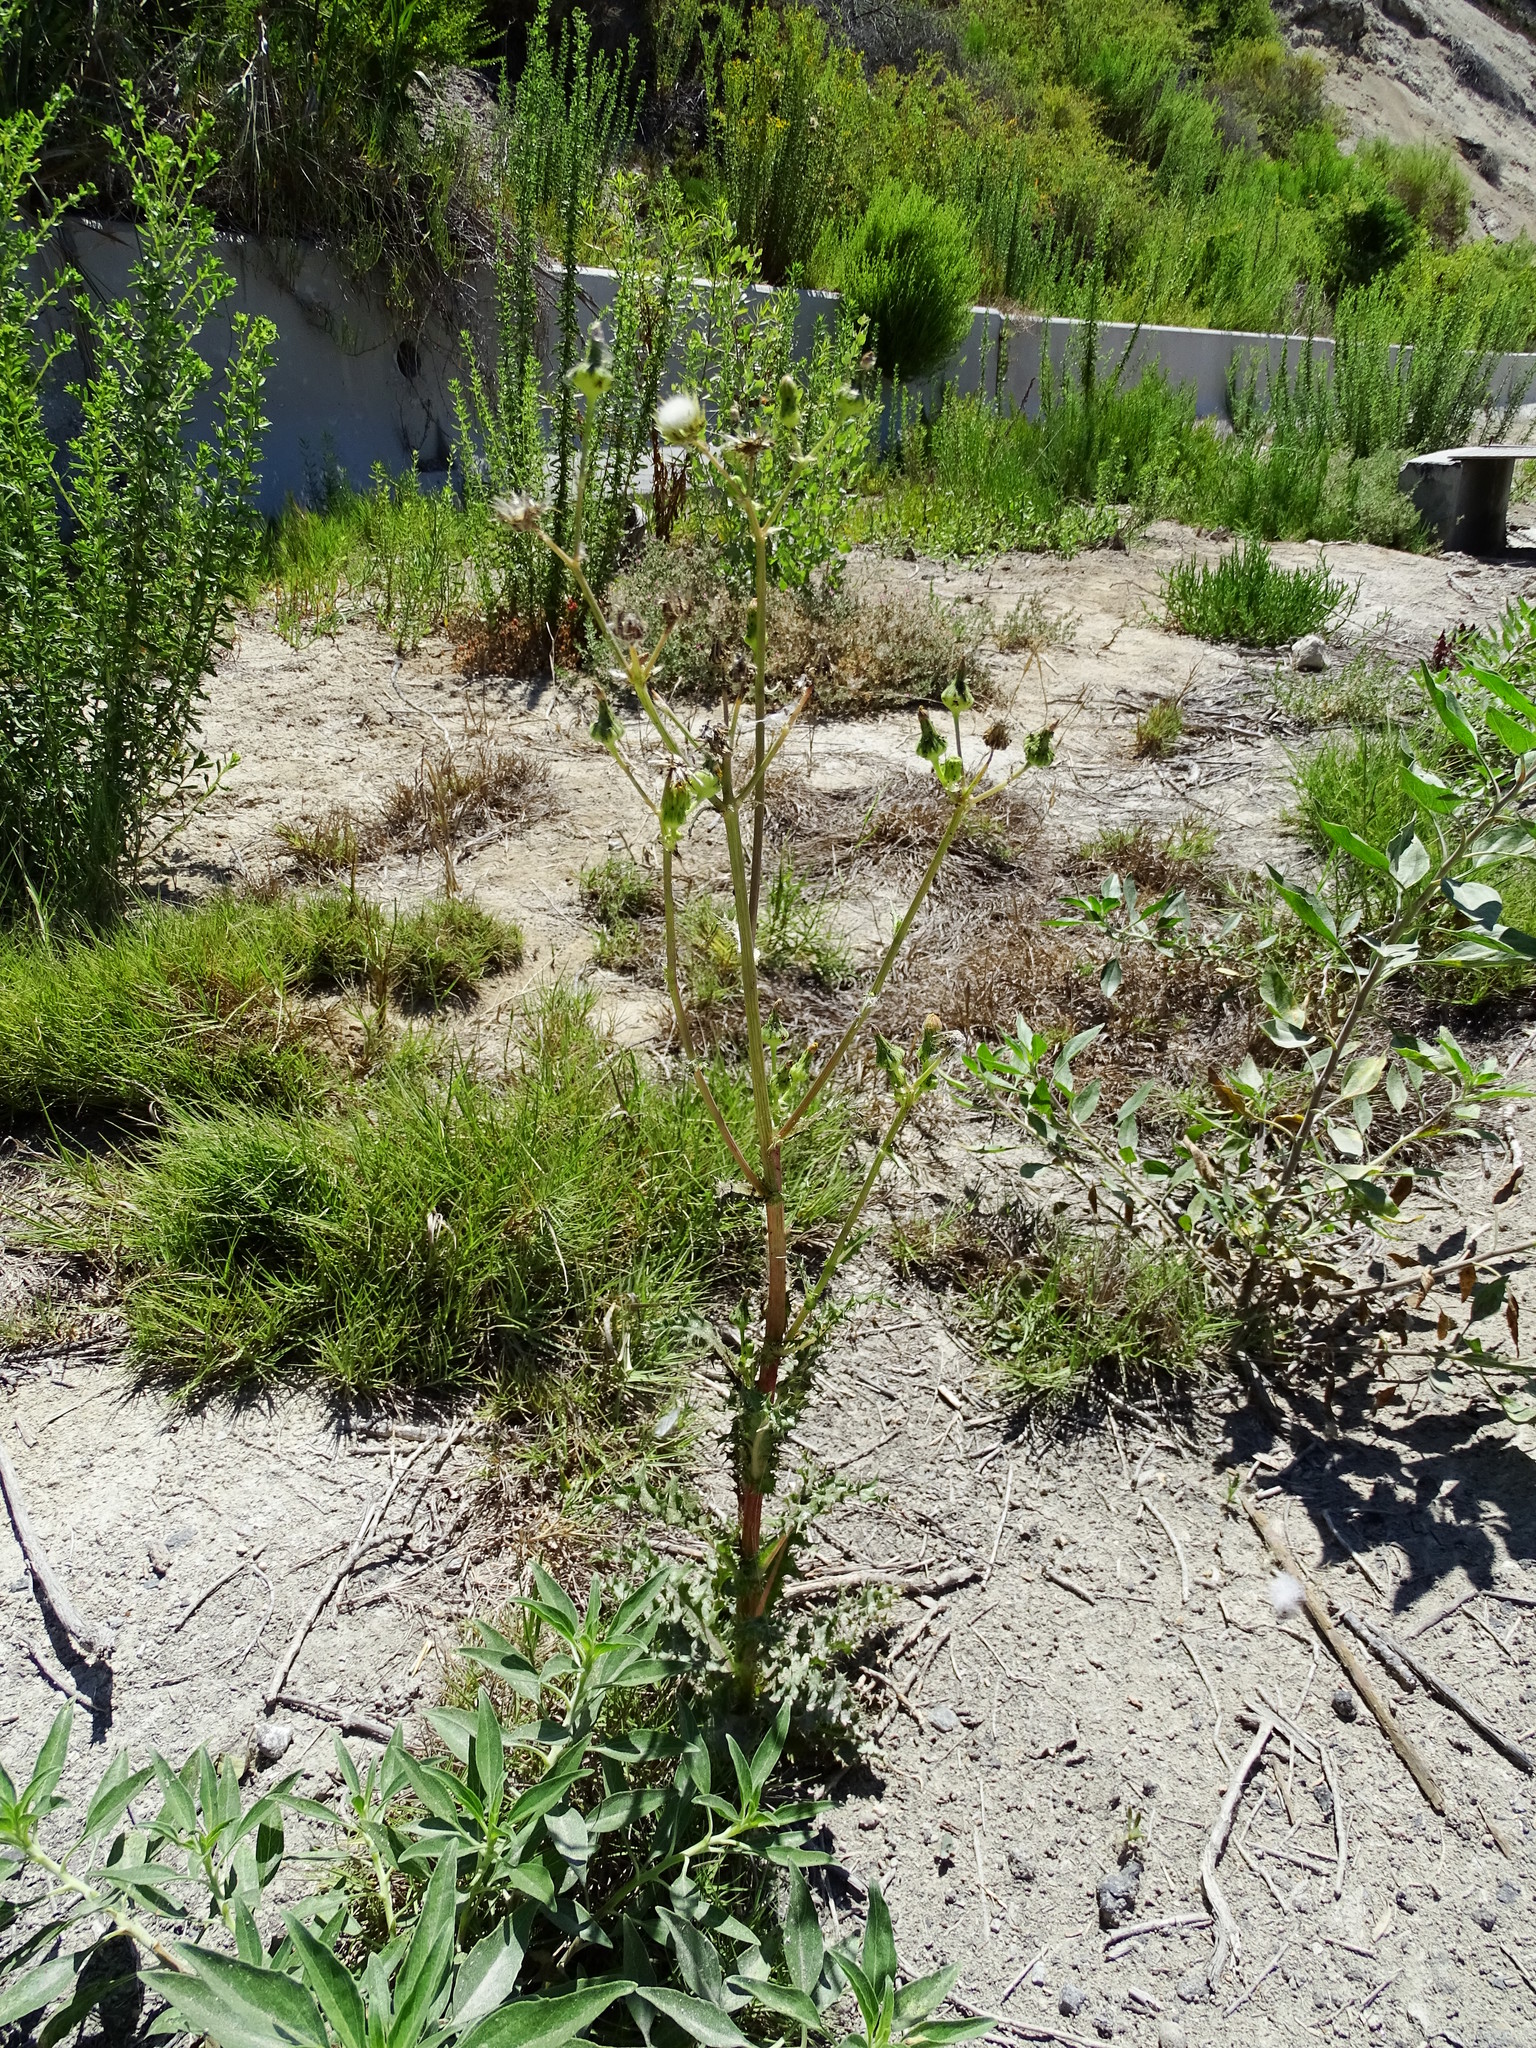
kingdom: Plantae
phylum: Tracheophyta
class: Magnoliopsida
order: Asterales
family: Asteraceae
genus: Sonchus
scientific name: Sonchus asper
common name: Prickly sow-thistle
